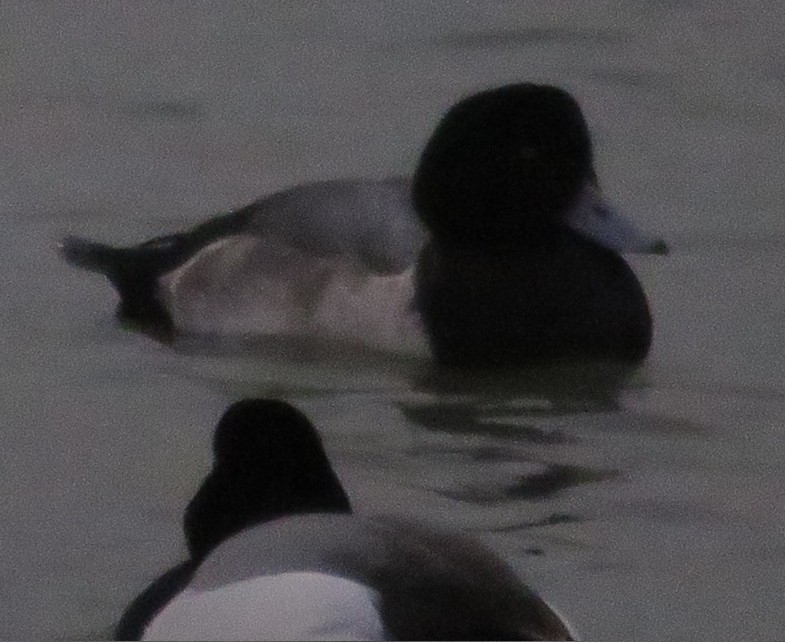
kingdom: Animalia
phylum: Chordata
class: Aves
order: Anseriformes
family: Anatidae
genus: Aythya
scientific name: Aythya marila
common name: Greater scaup
